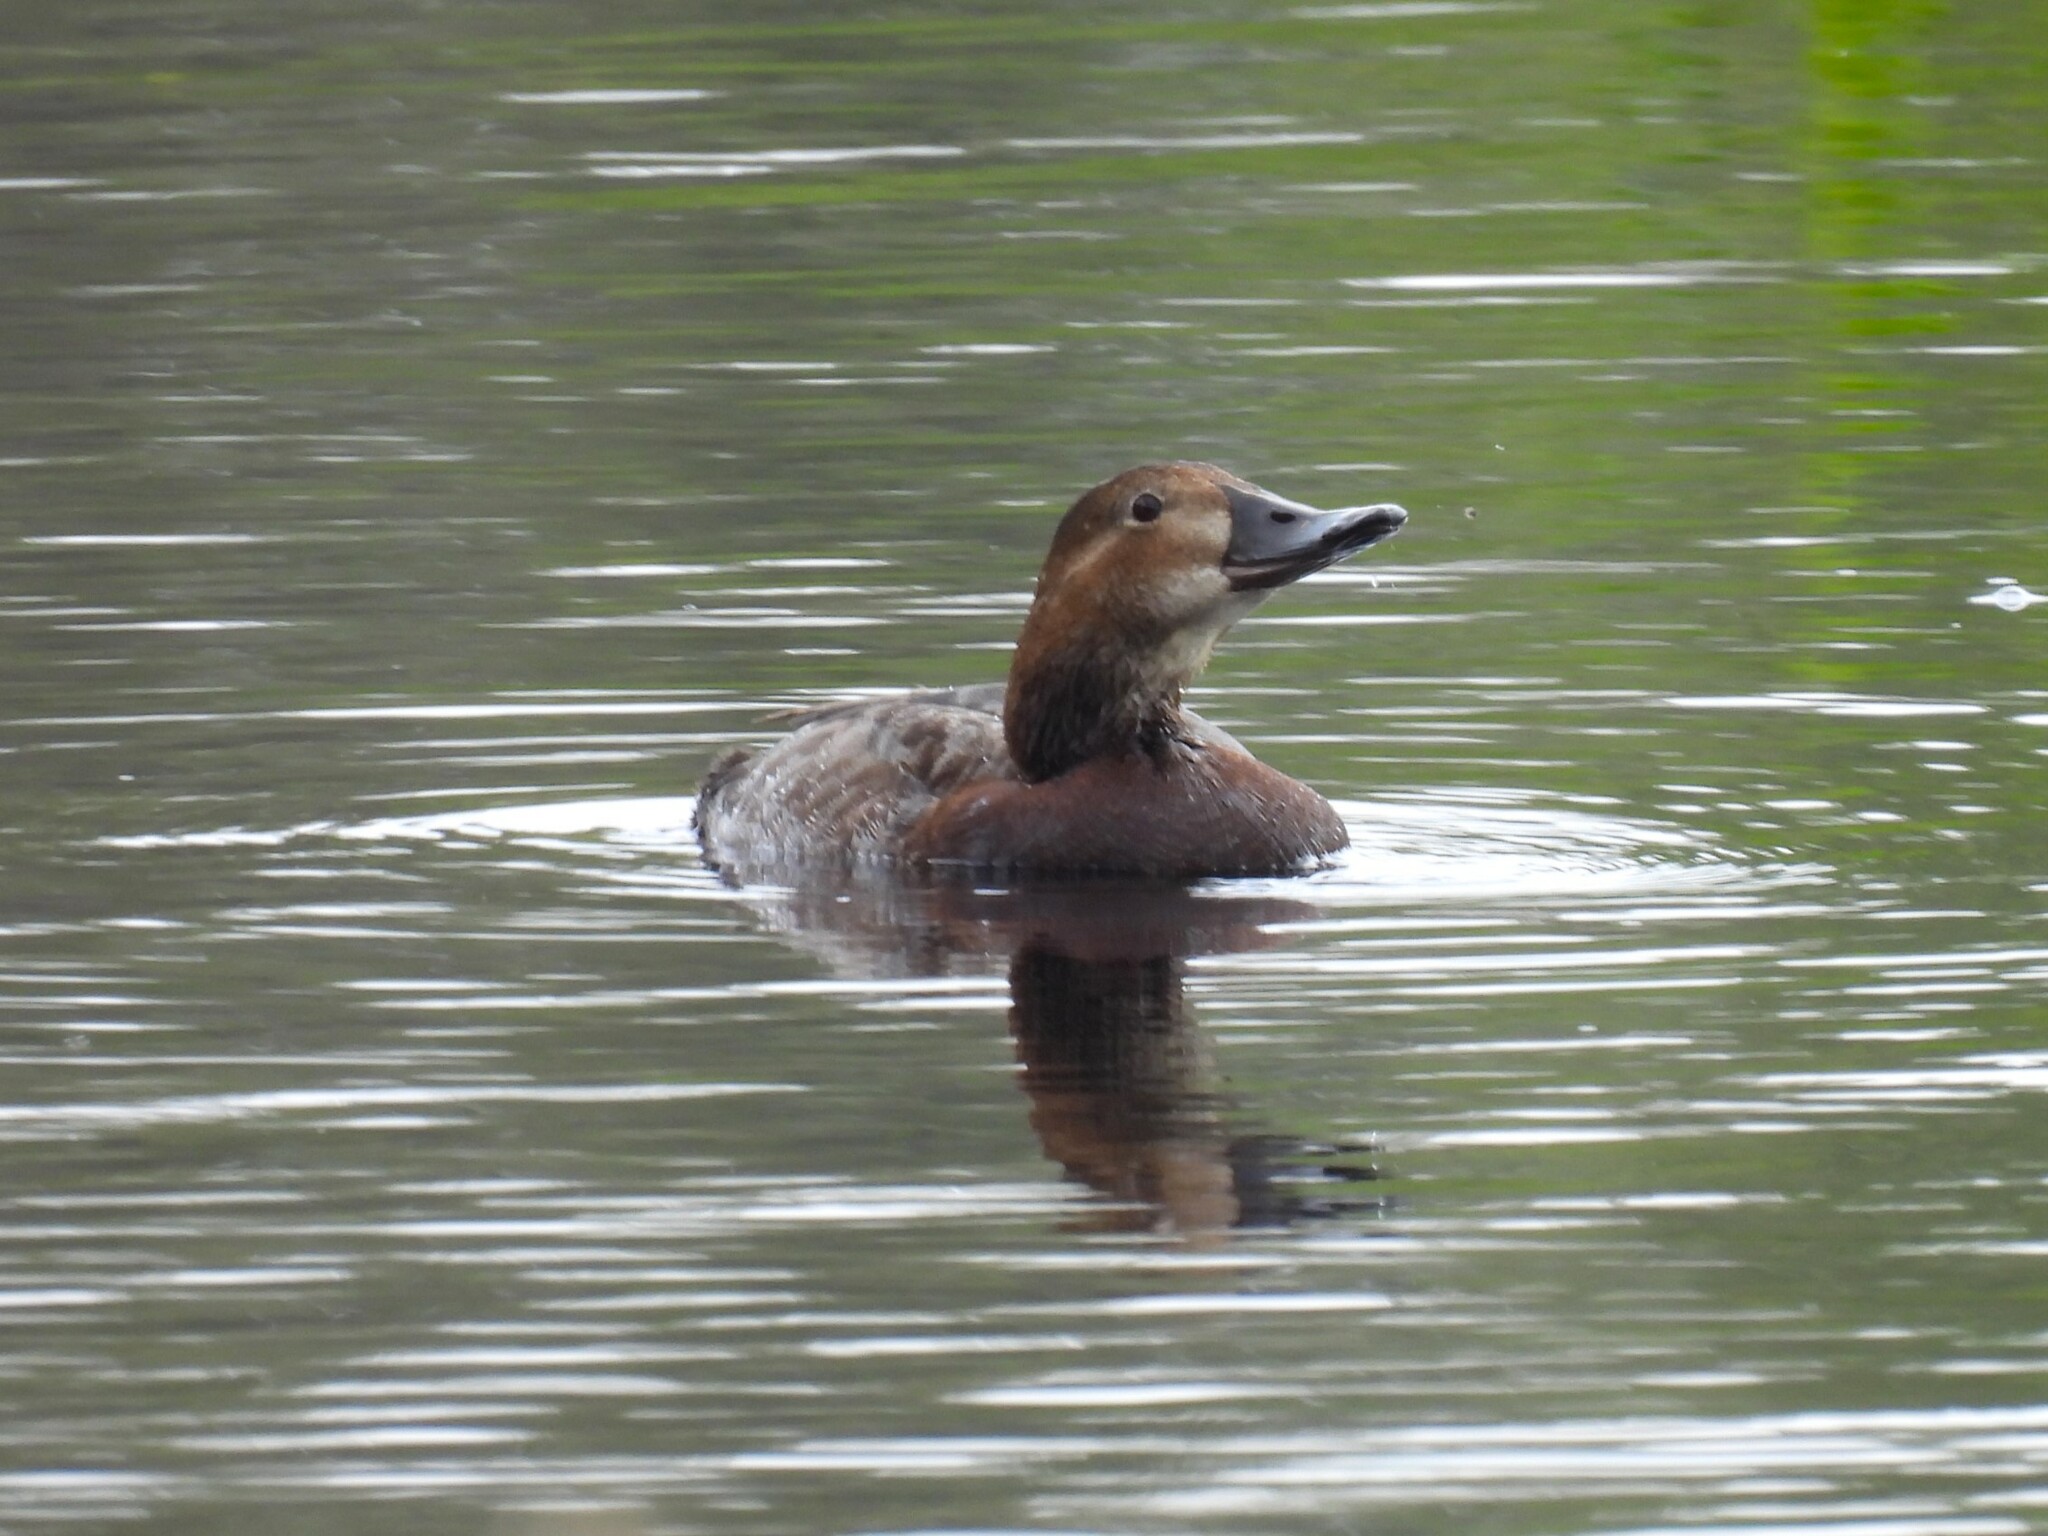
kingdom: Animalia
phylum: Chordata
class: Aves
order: Anseriformes
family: Anatidae
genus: Aythya
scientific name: Aythya ferina
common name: Common pochard
